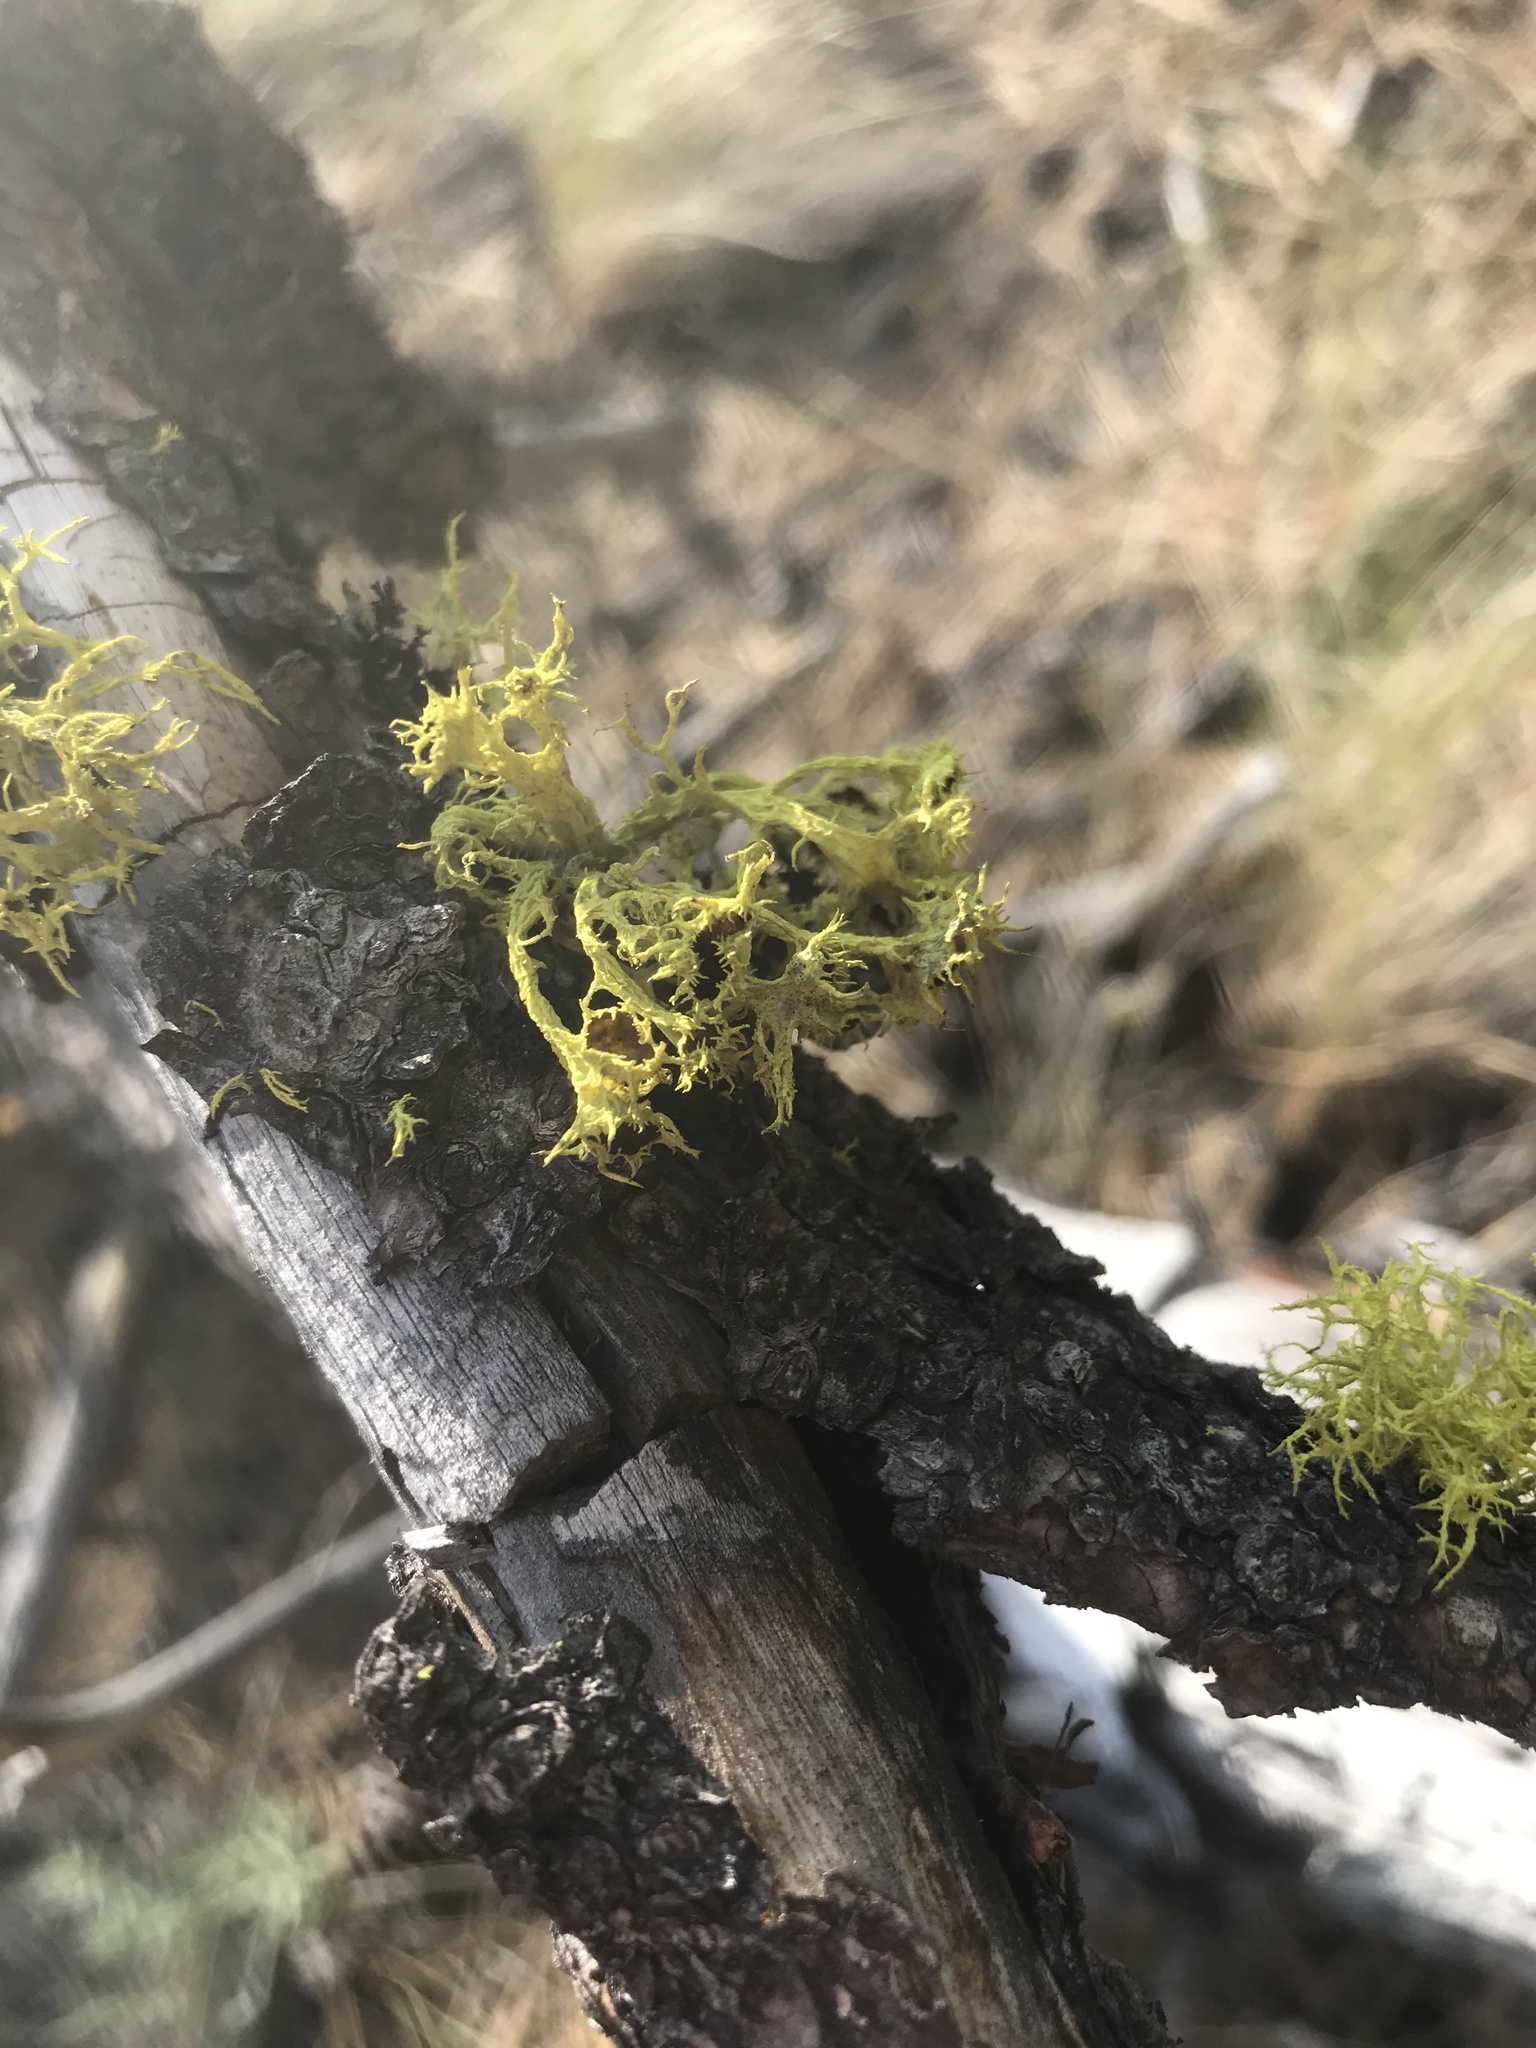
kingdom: Fungi
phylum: Ascomycota
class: Lecanoromycetes
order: Lecanorales
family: Parmeliaceae
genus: Letharia
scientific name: Letharia columbiana
